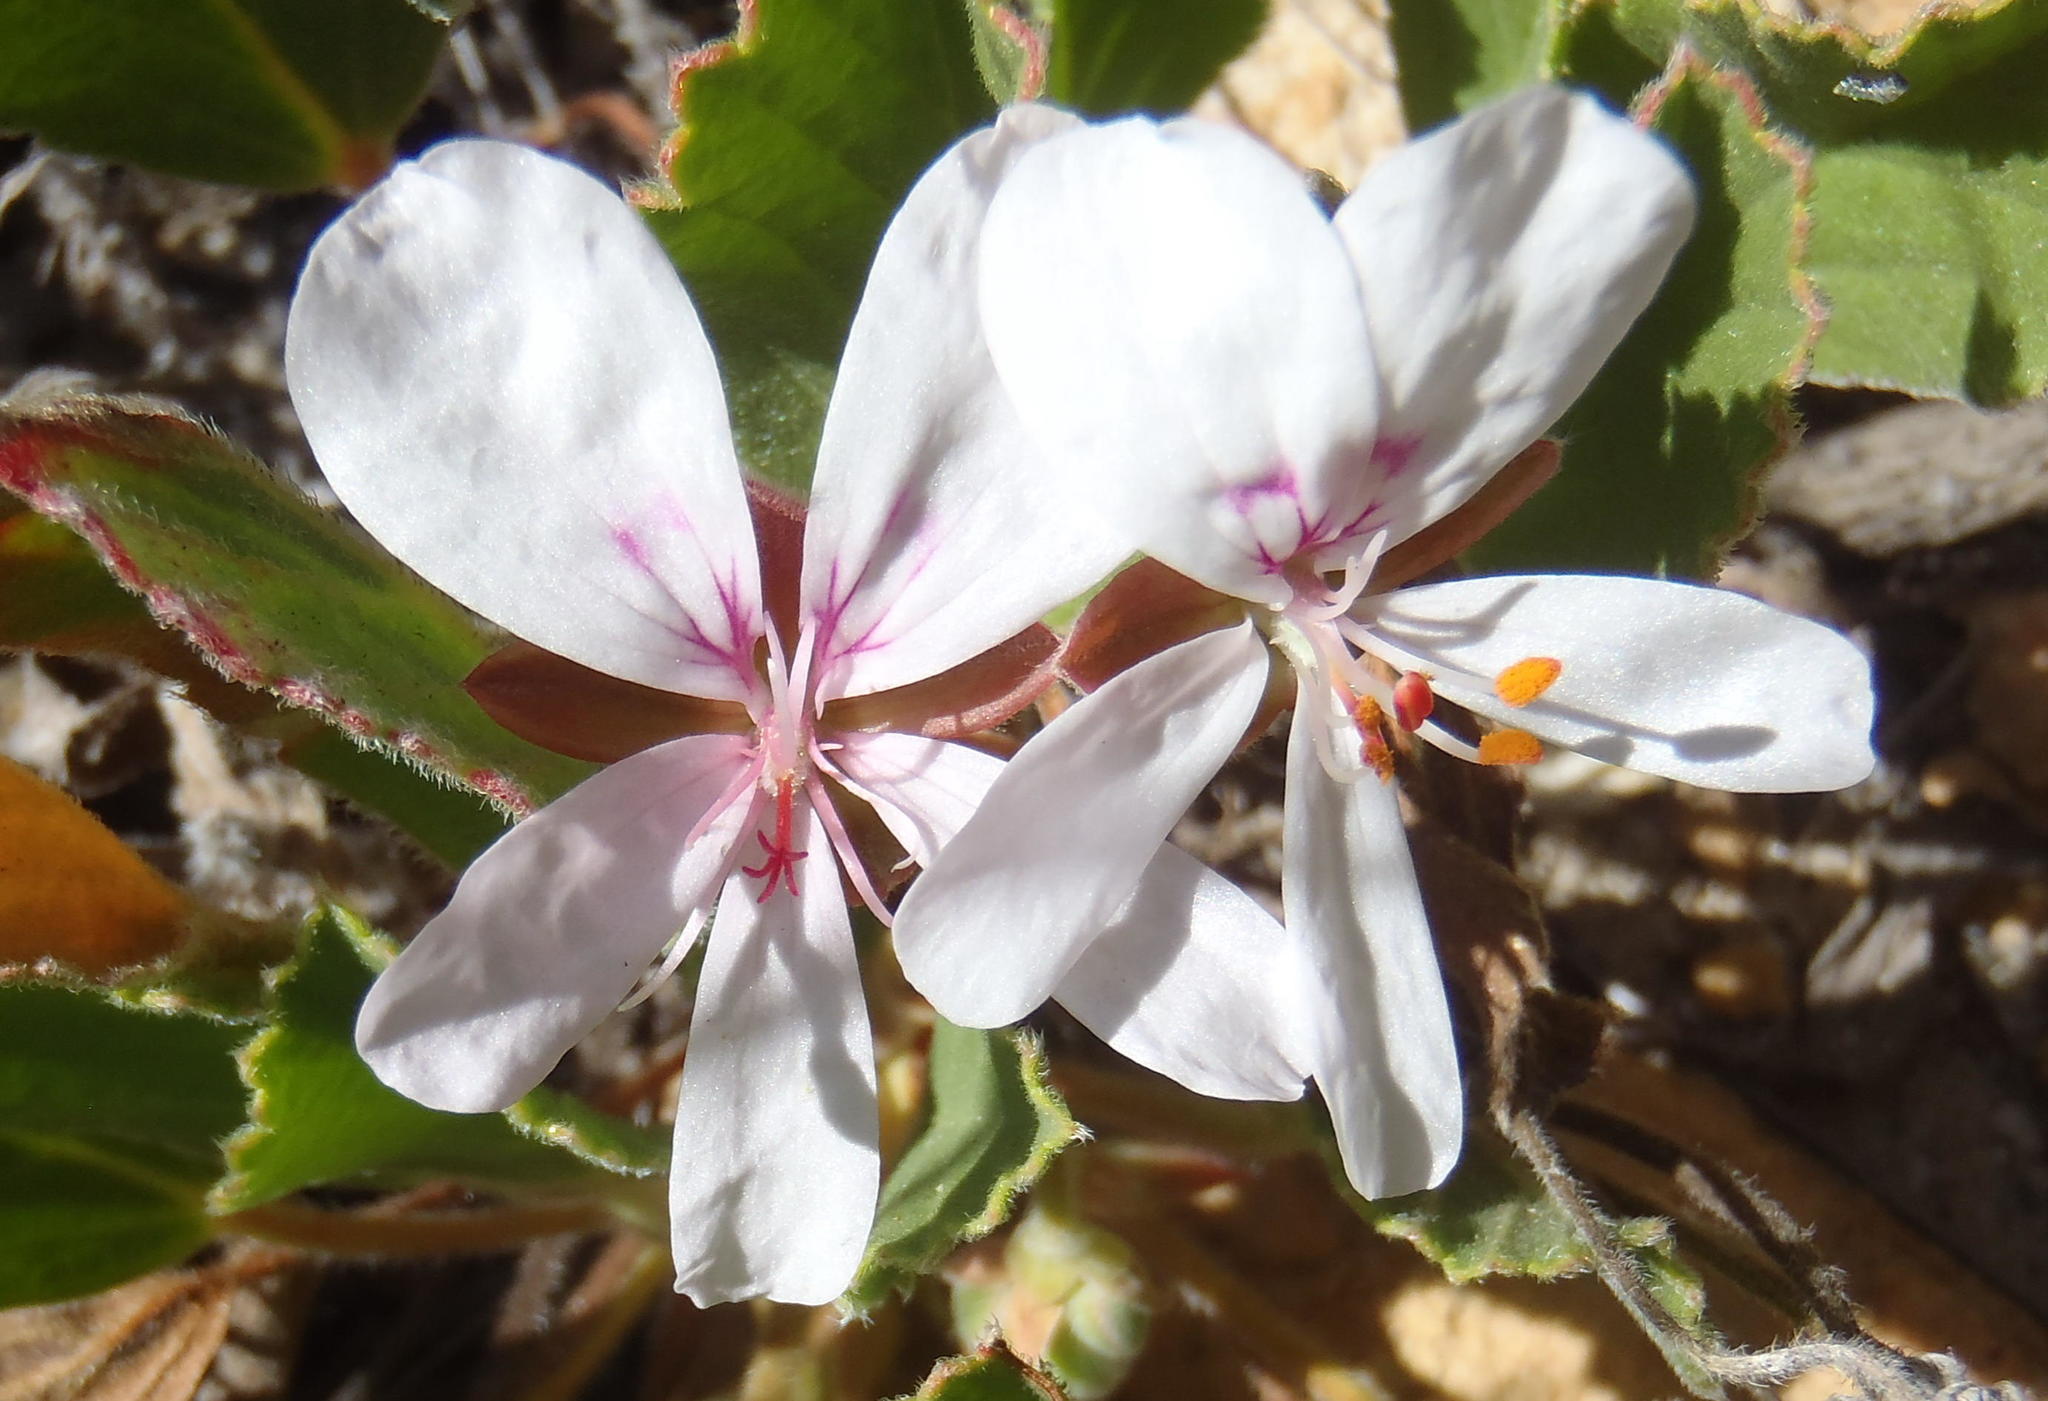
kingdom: Plantae
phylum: Tracheophyta
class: Magnoliopsida
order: Geraniales
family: Geraniaceae
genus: Pelargonium
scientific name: Pelargonium ovale
